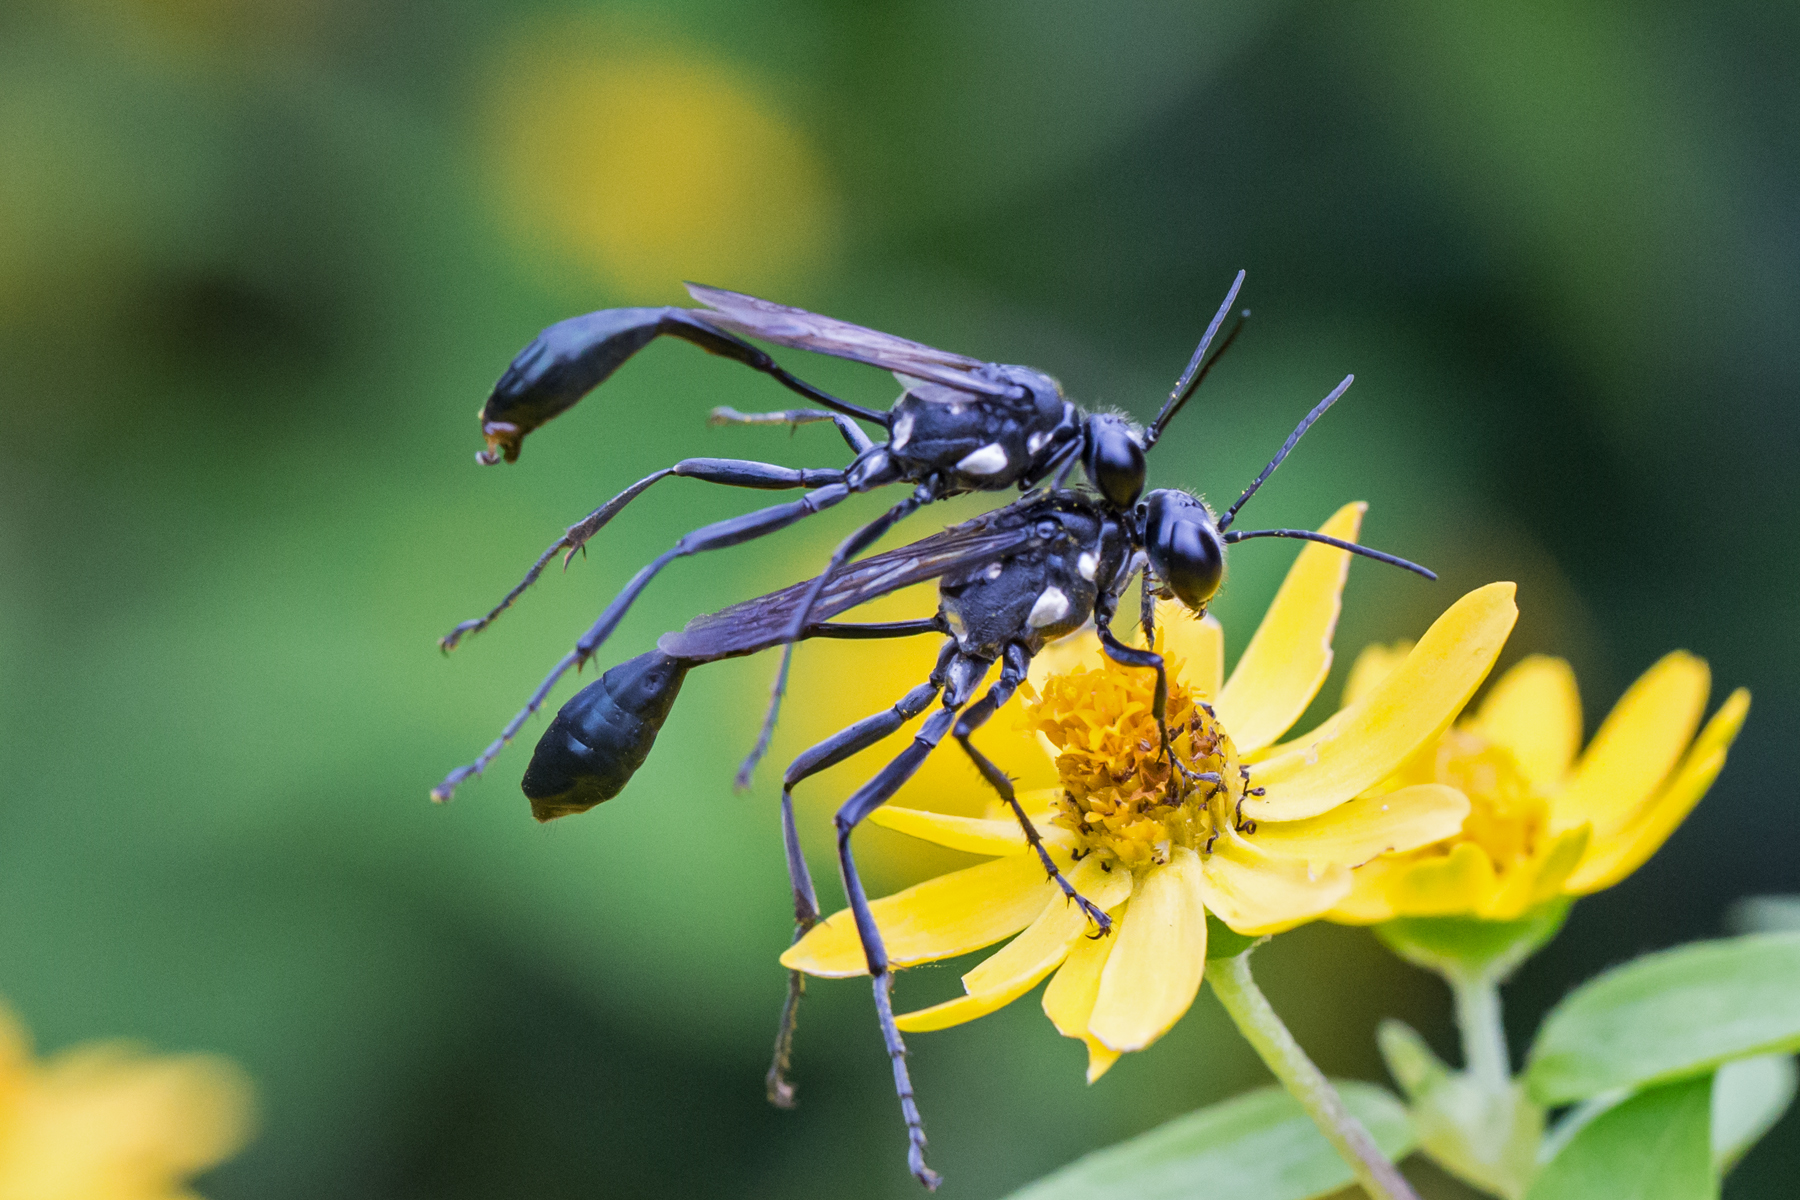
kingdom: Animalia
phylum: Arthropoda
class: Insecta
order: Hymenoptera
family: Sphecidae
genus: Eremnophila
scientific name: Eremnophila aureonotata
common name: Gold-marked thread-waisted wasp
